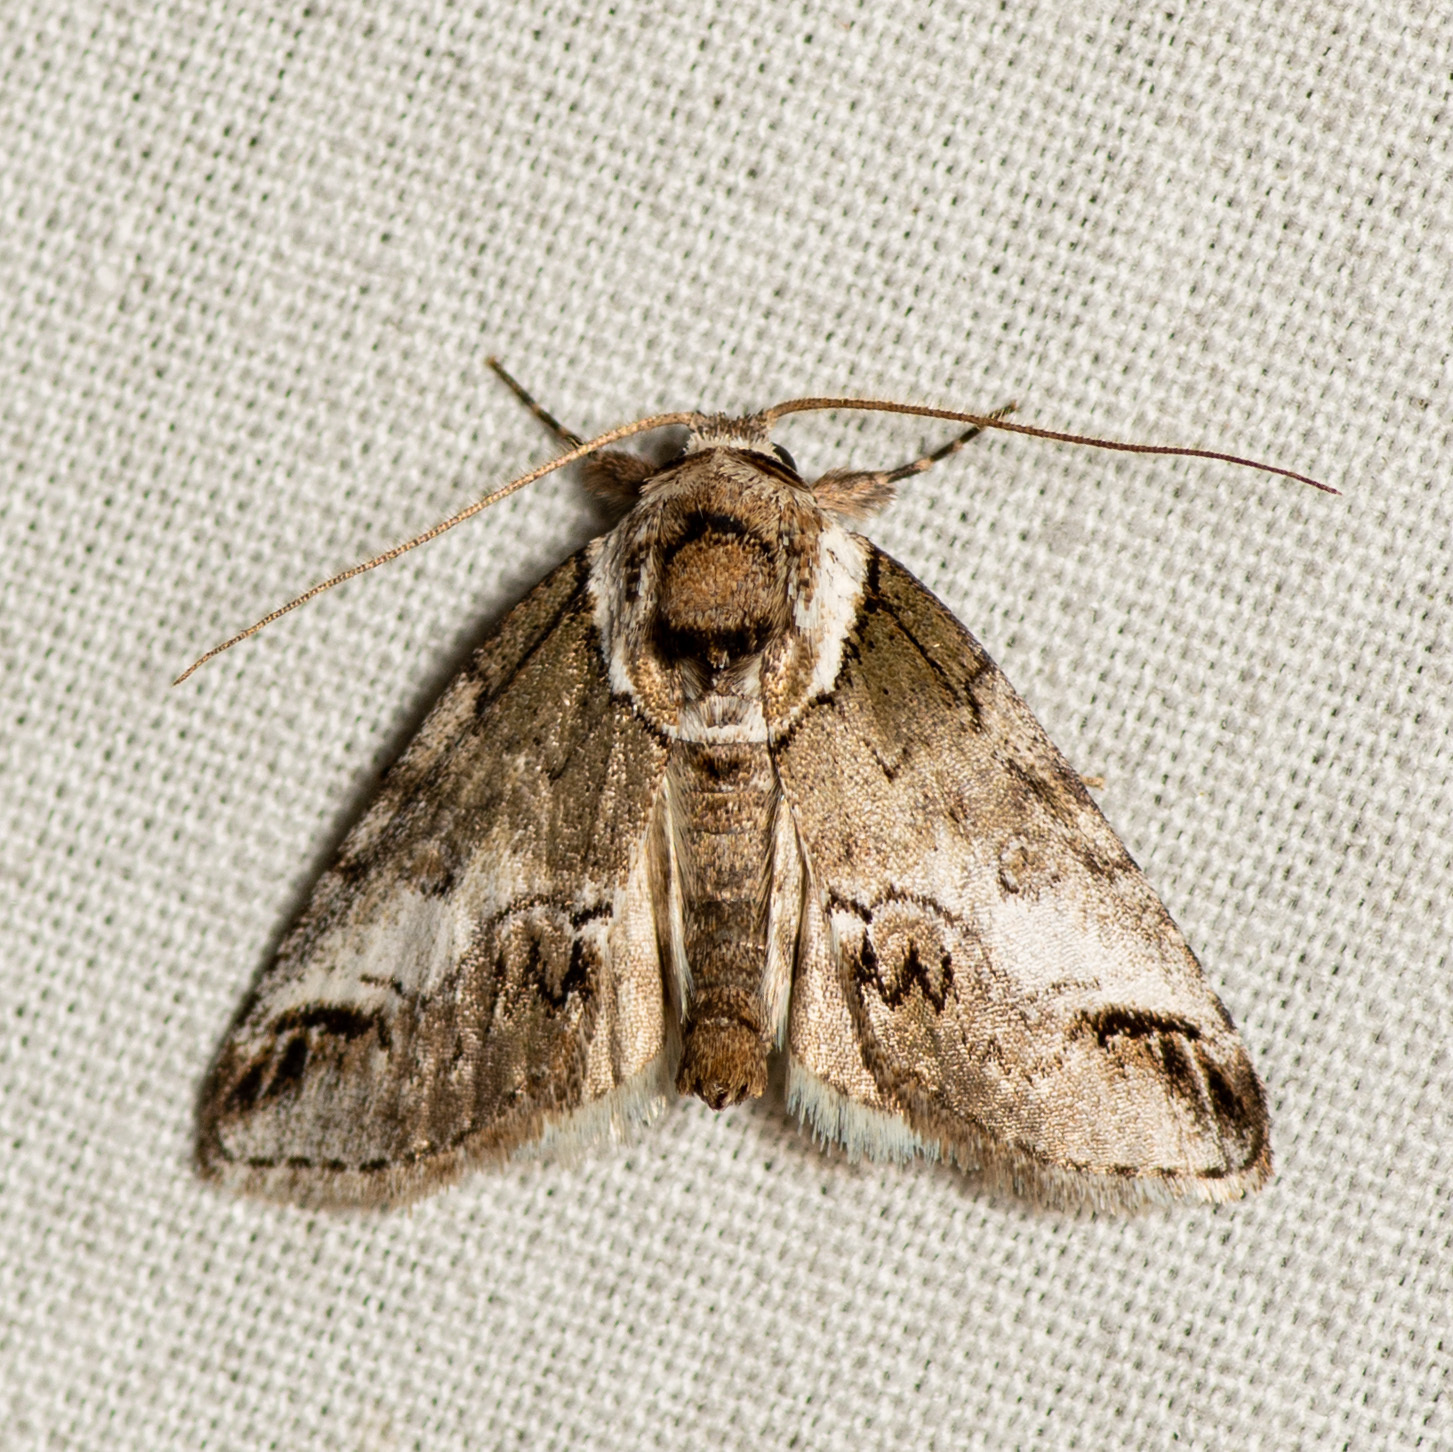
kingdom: Animalia
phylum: Arthropoda
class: Insecta
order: Lepidoptera
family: Nolidae
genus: Baileya
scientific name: Baileya australis
